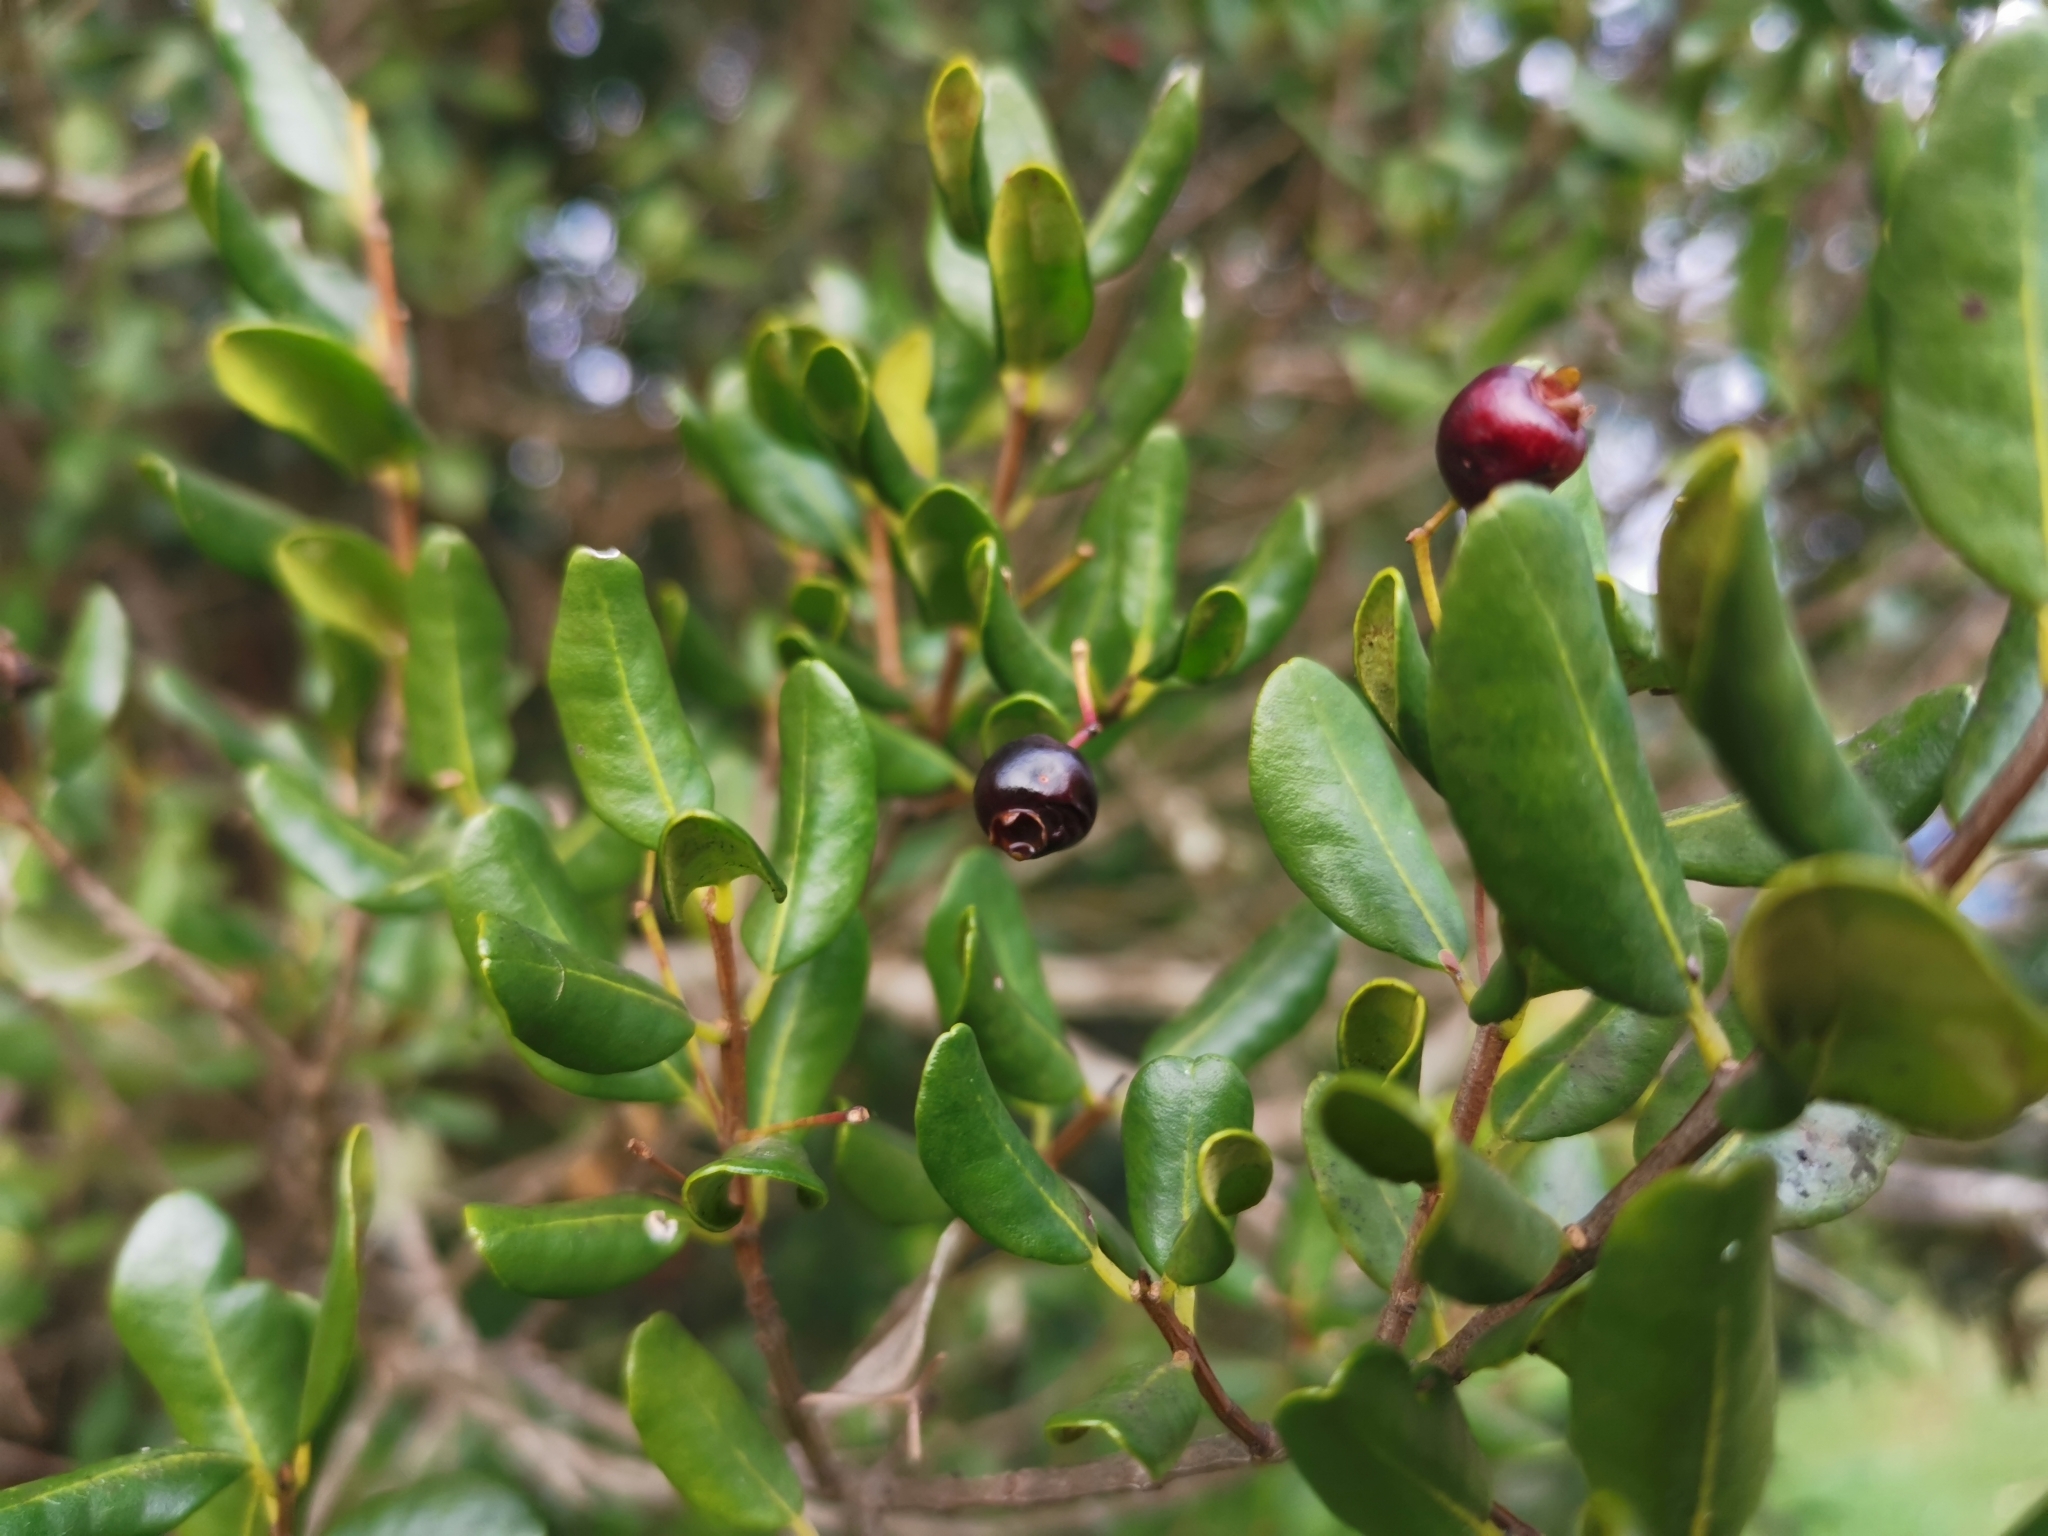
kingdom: Plantae
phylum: Tracheophyta
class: Magnoliopsida
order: Myrtales
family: Myrtaceae
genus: Blepharocalyx
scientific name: Blepharocalyx cruckshanksii
